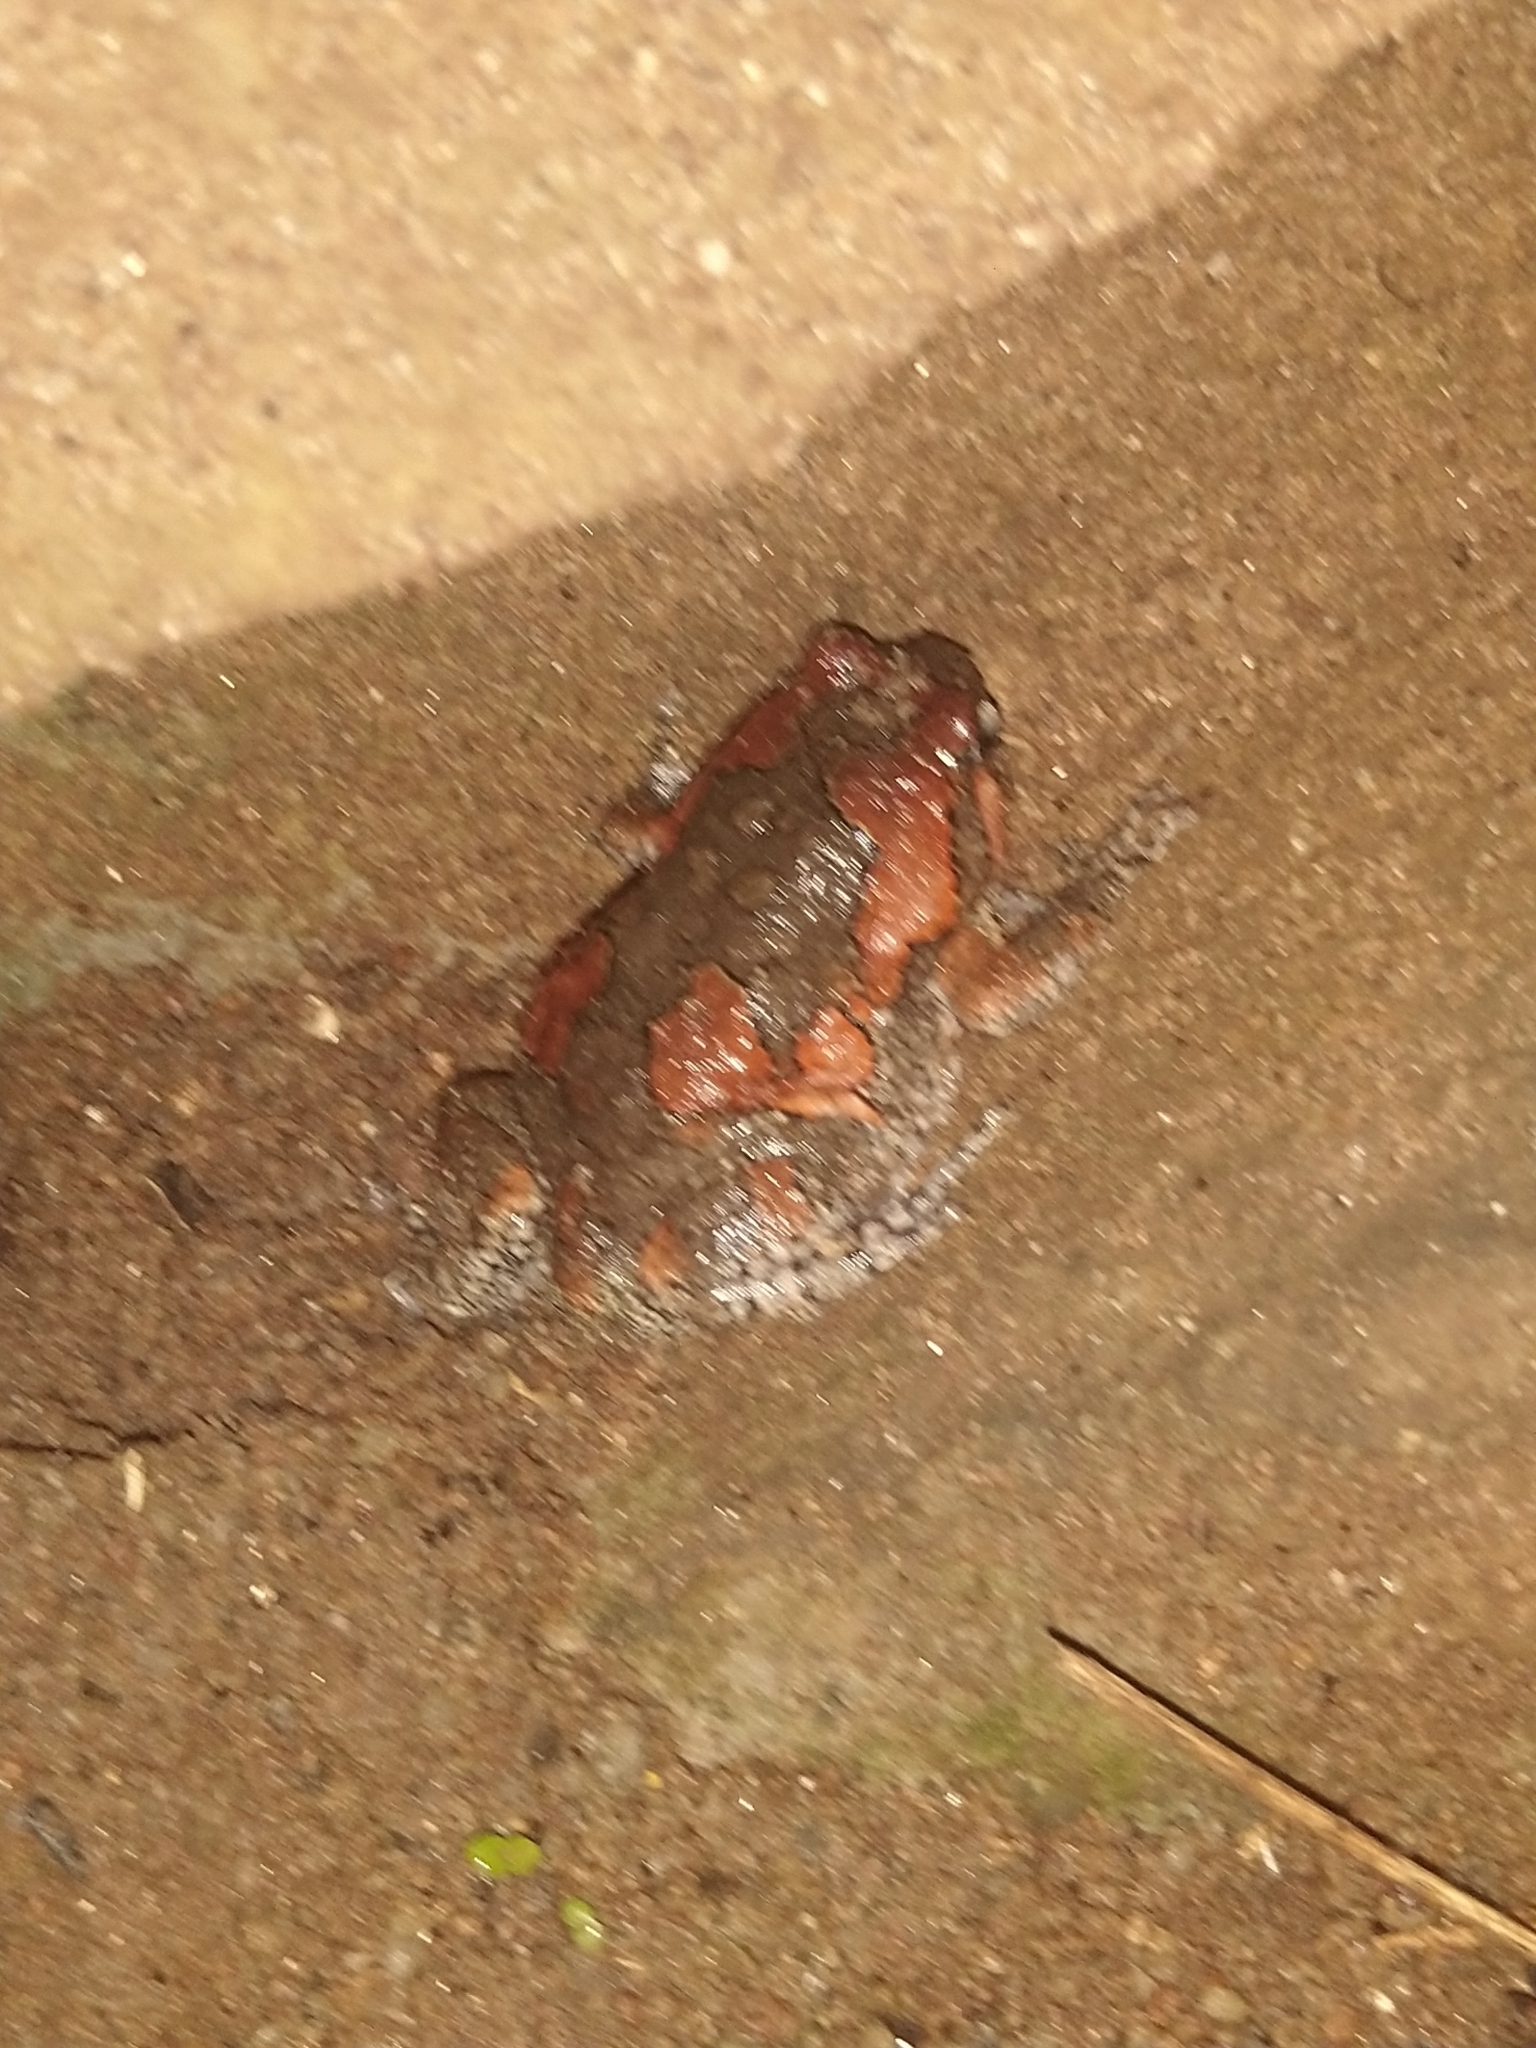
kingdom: Animalia
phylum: Chordata
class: Amphibia
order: Anura
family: Microhylidae
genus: Uperodon
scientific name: Uperodon taprobanicus
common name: Ceylon kaloula
